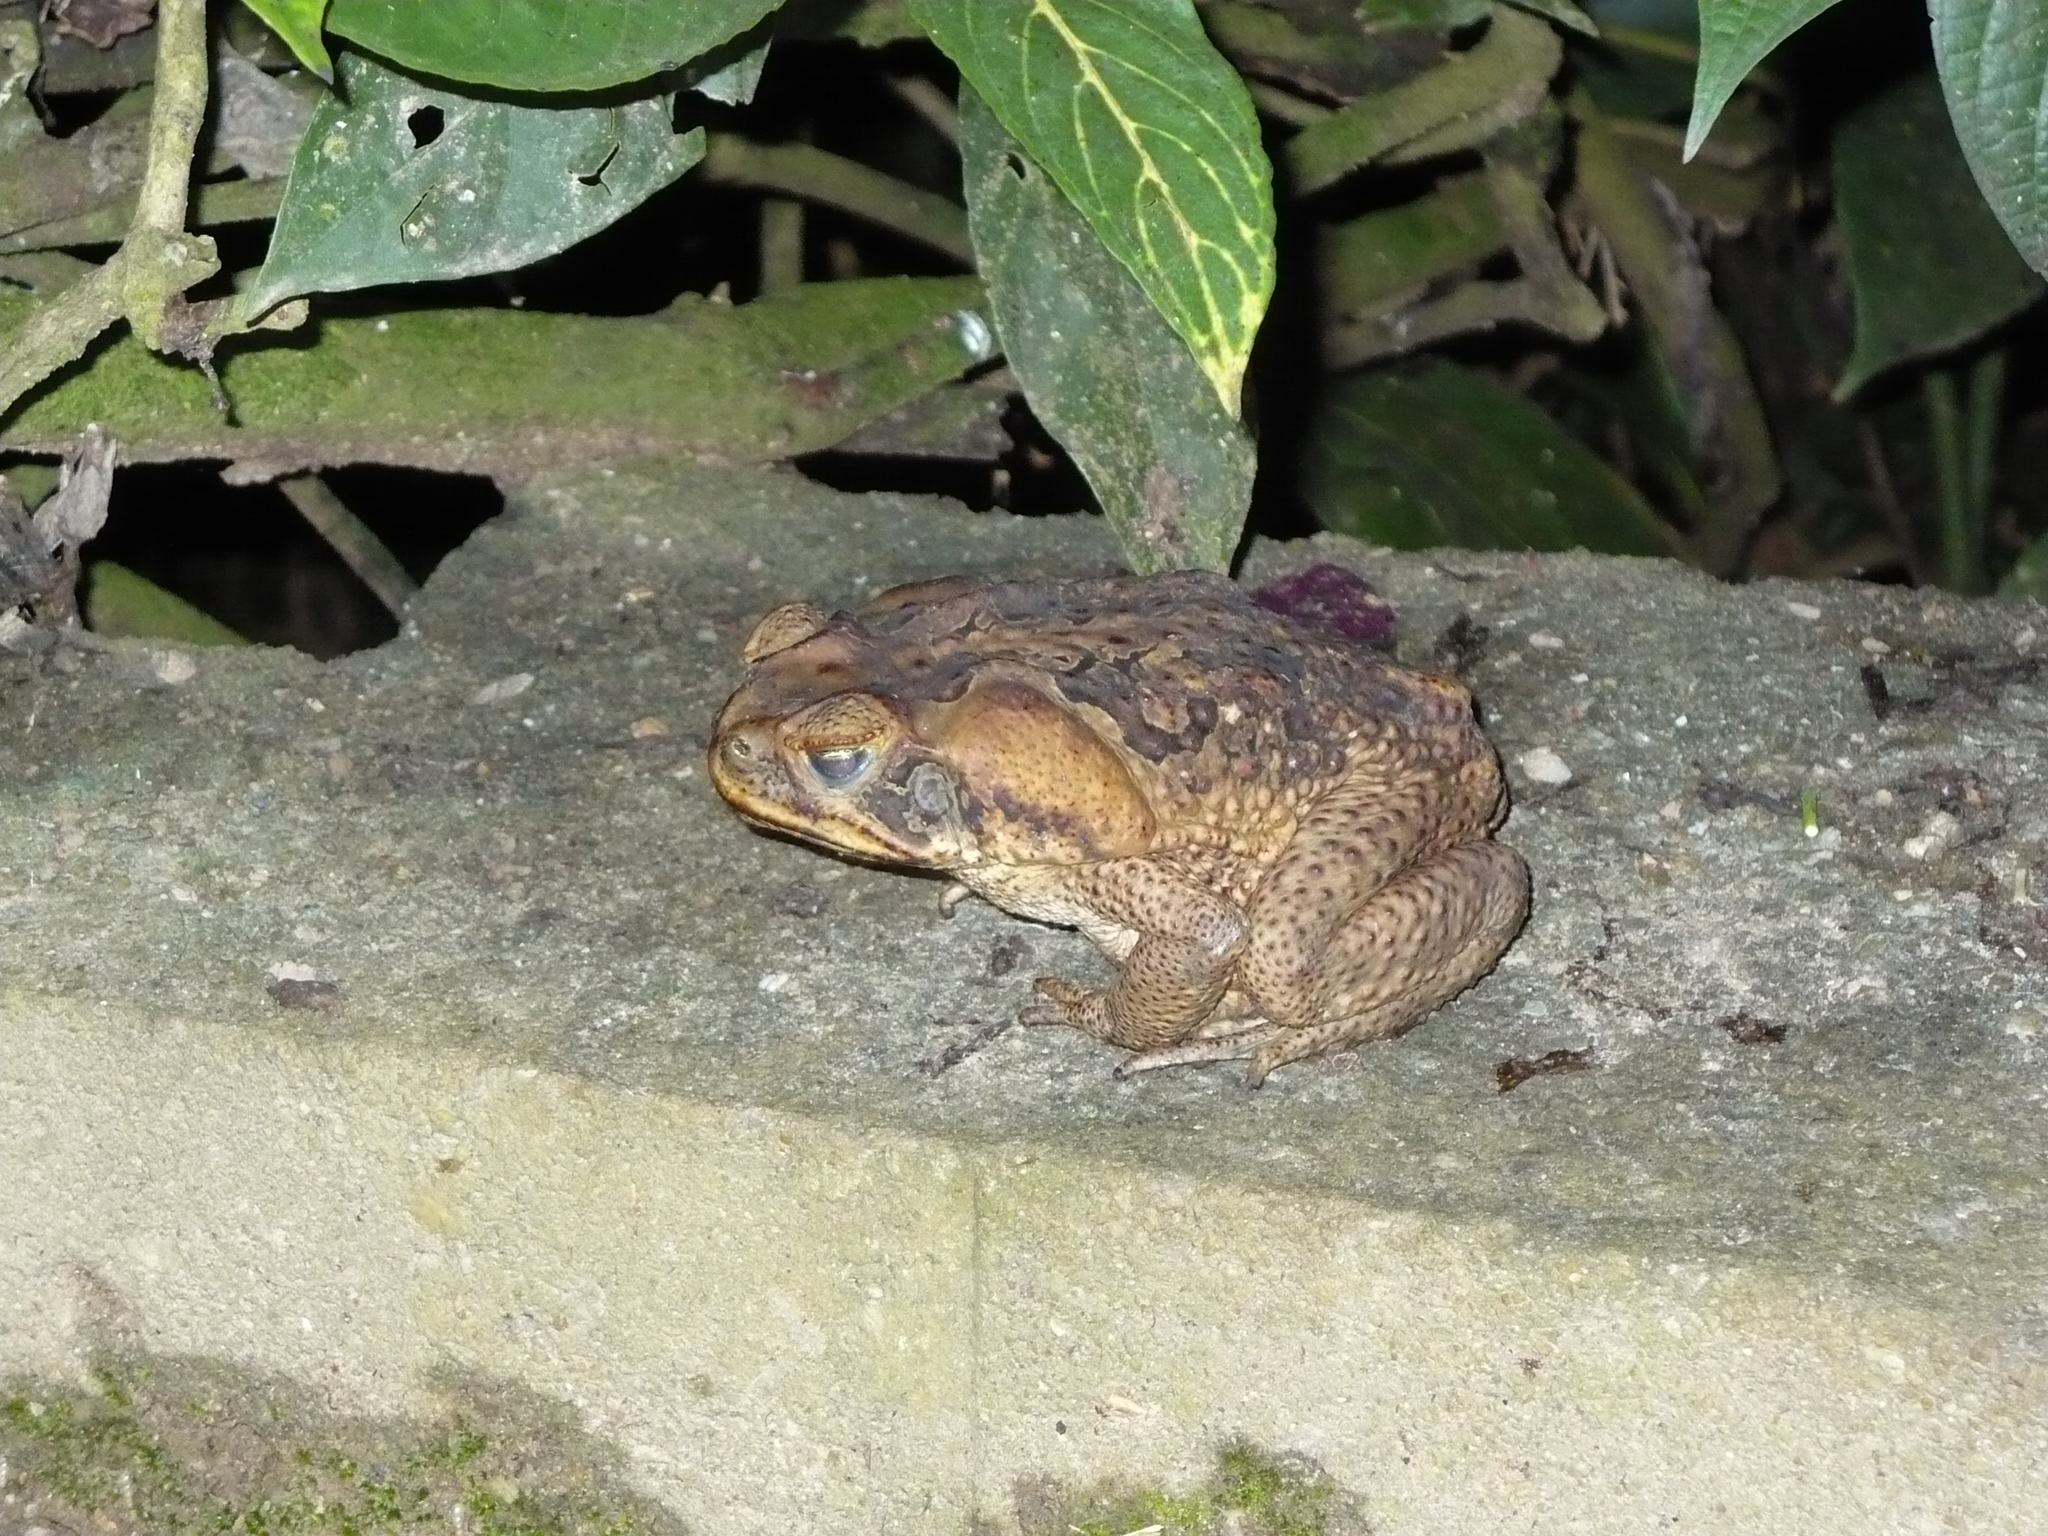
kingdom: Animalia
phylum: Chordata
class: Amphibia
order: Anura
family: Bufonidae
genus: Rhinella
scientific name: Rhinella marina
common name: Cane toad
